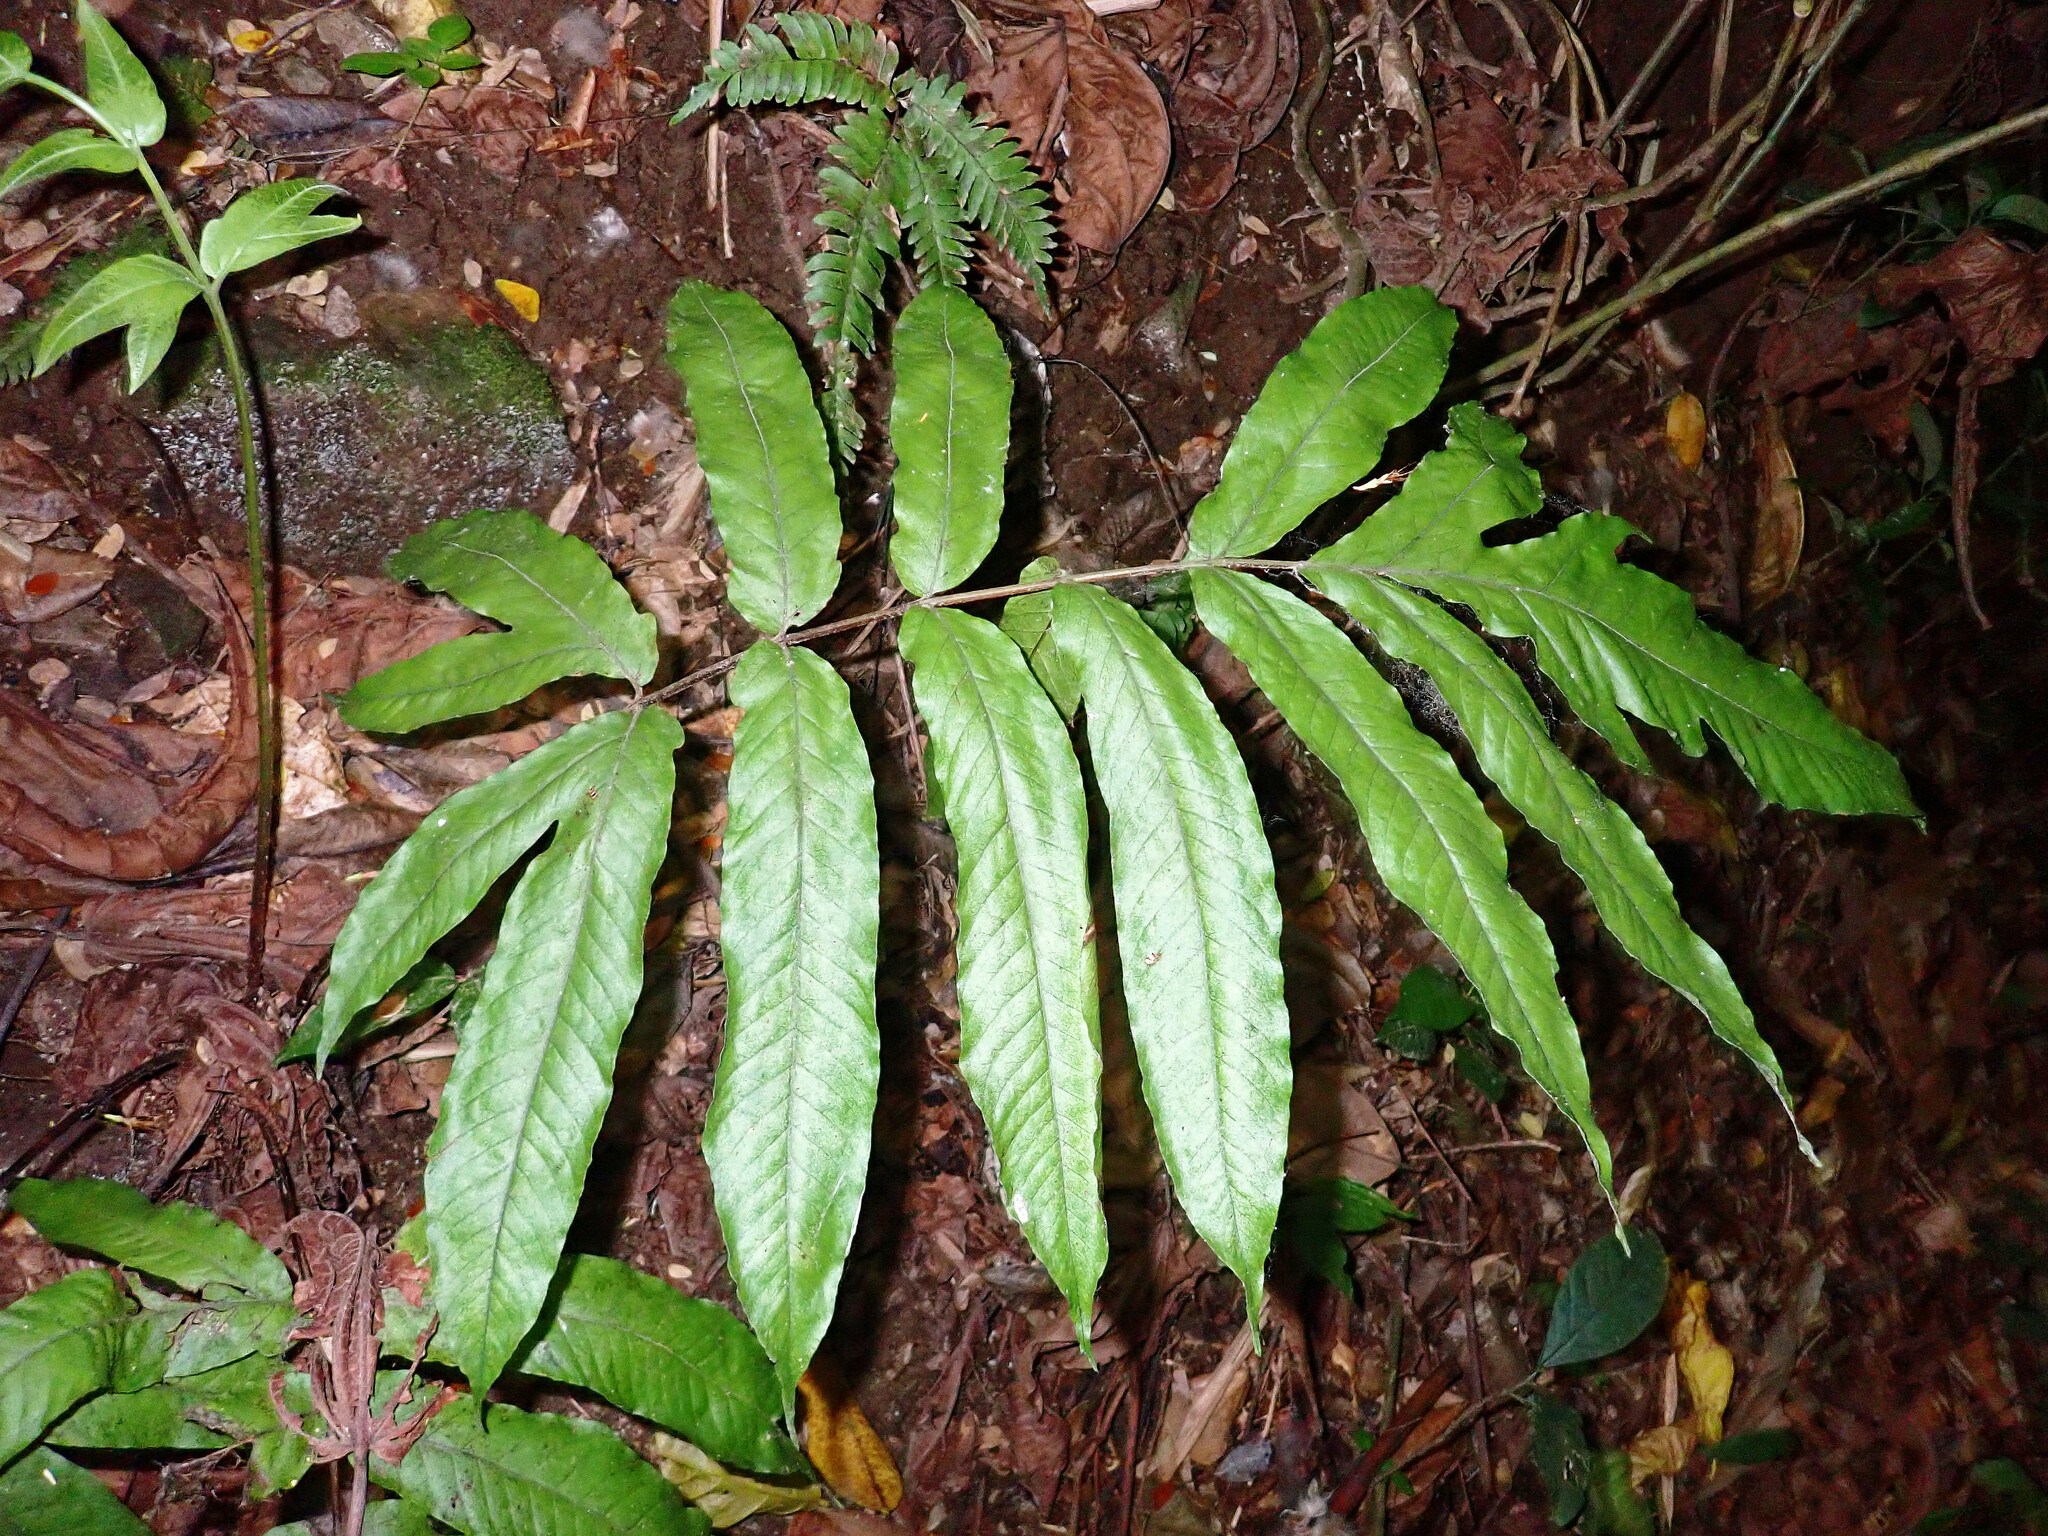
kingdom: Plantae
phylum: Tracheophyta
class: Polypodiopsida
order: Polypodiales
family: Tectariaceae
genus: Tectaria
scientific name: Tectaria incisa
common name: Incised halberd fern
